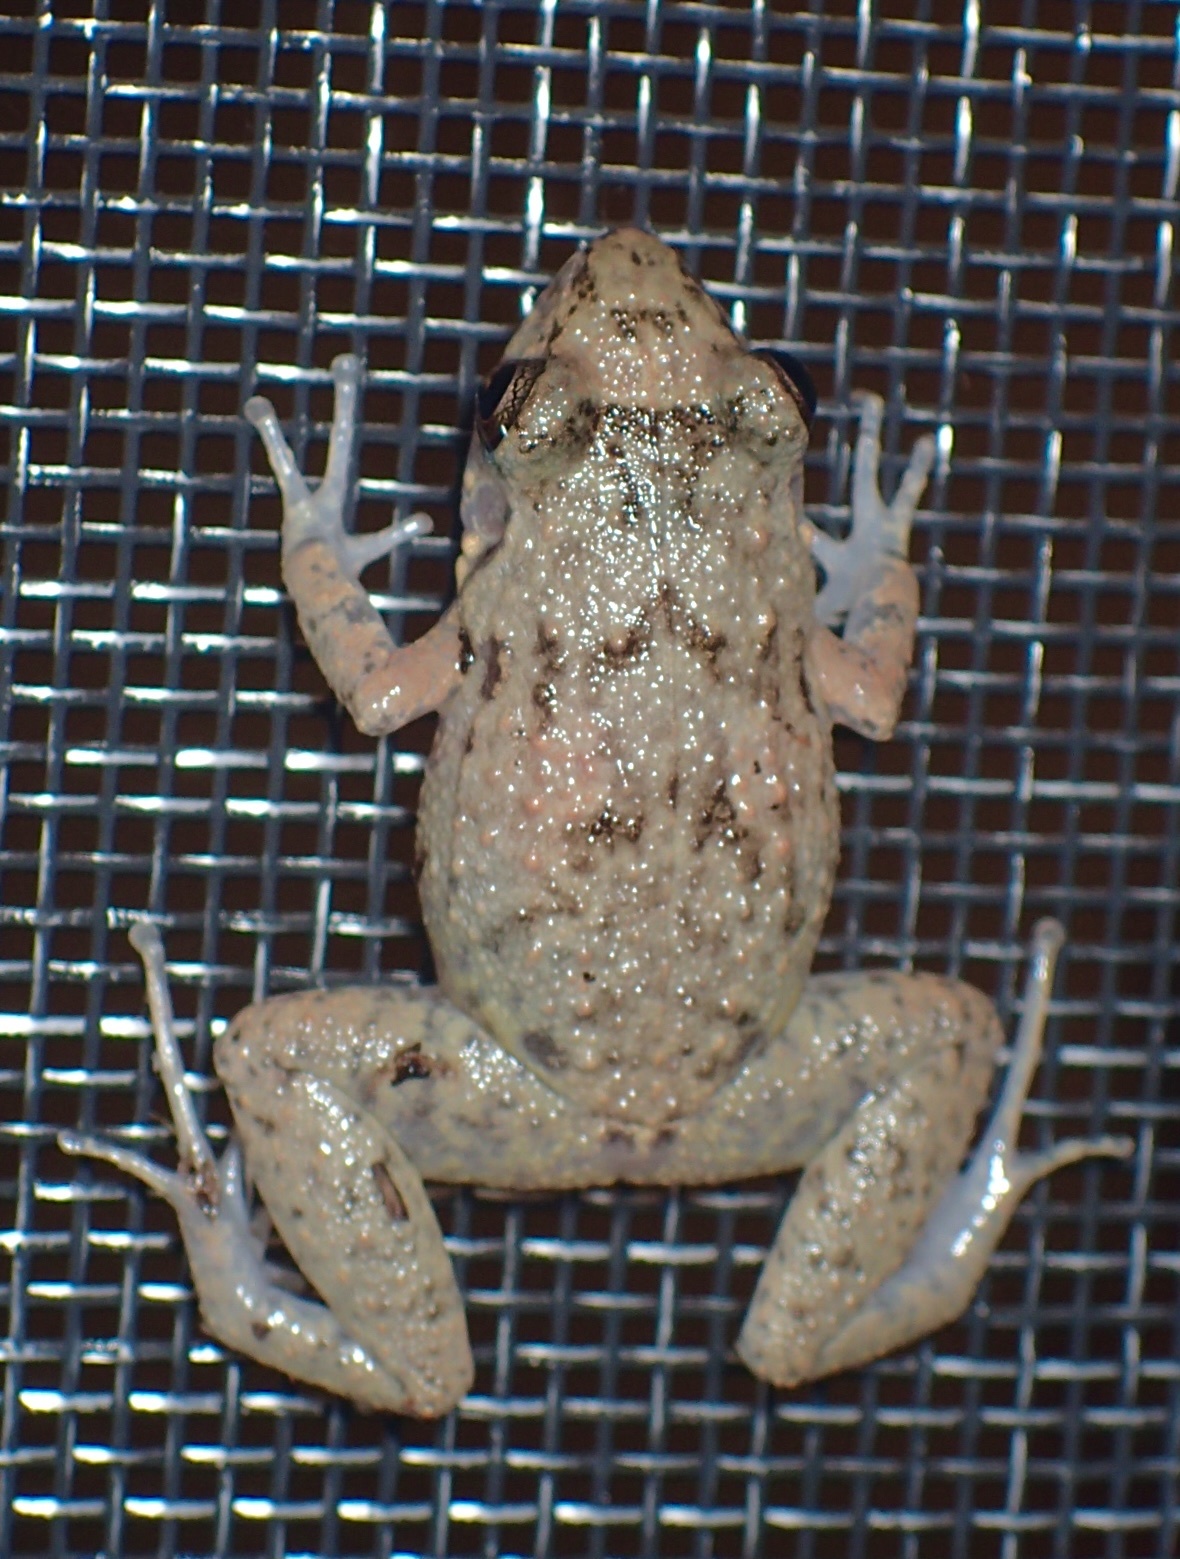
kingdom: Animalia
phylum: Chordata
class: Amphibia
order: Anura
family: Eleutherodactylidae
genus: Eleutherodactylus
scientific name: Eleutherodactylus planirostris
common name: Greenhouse frog
